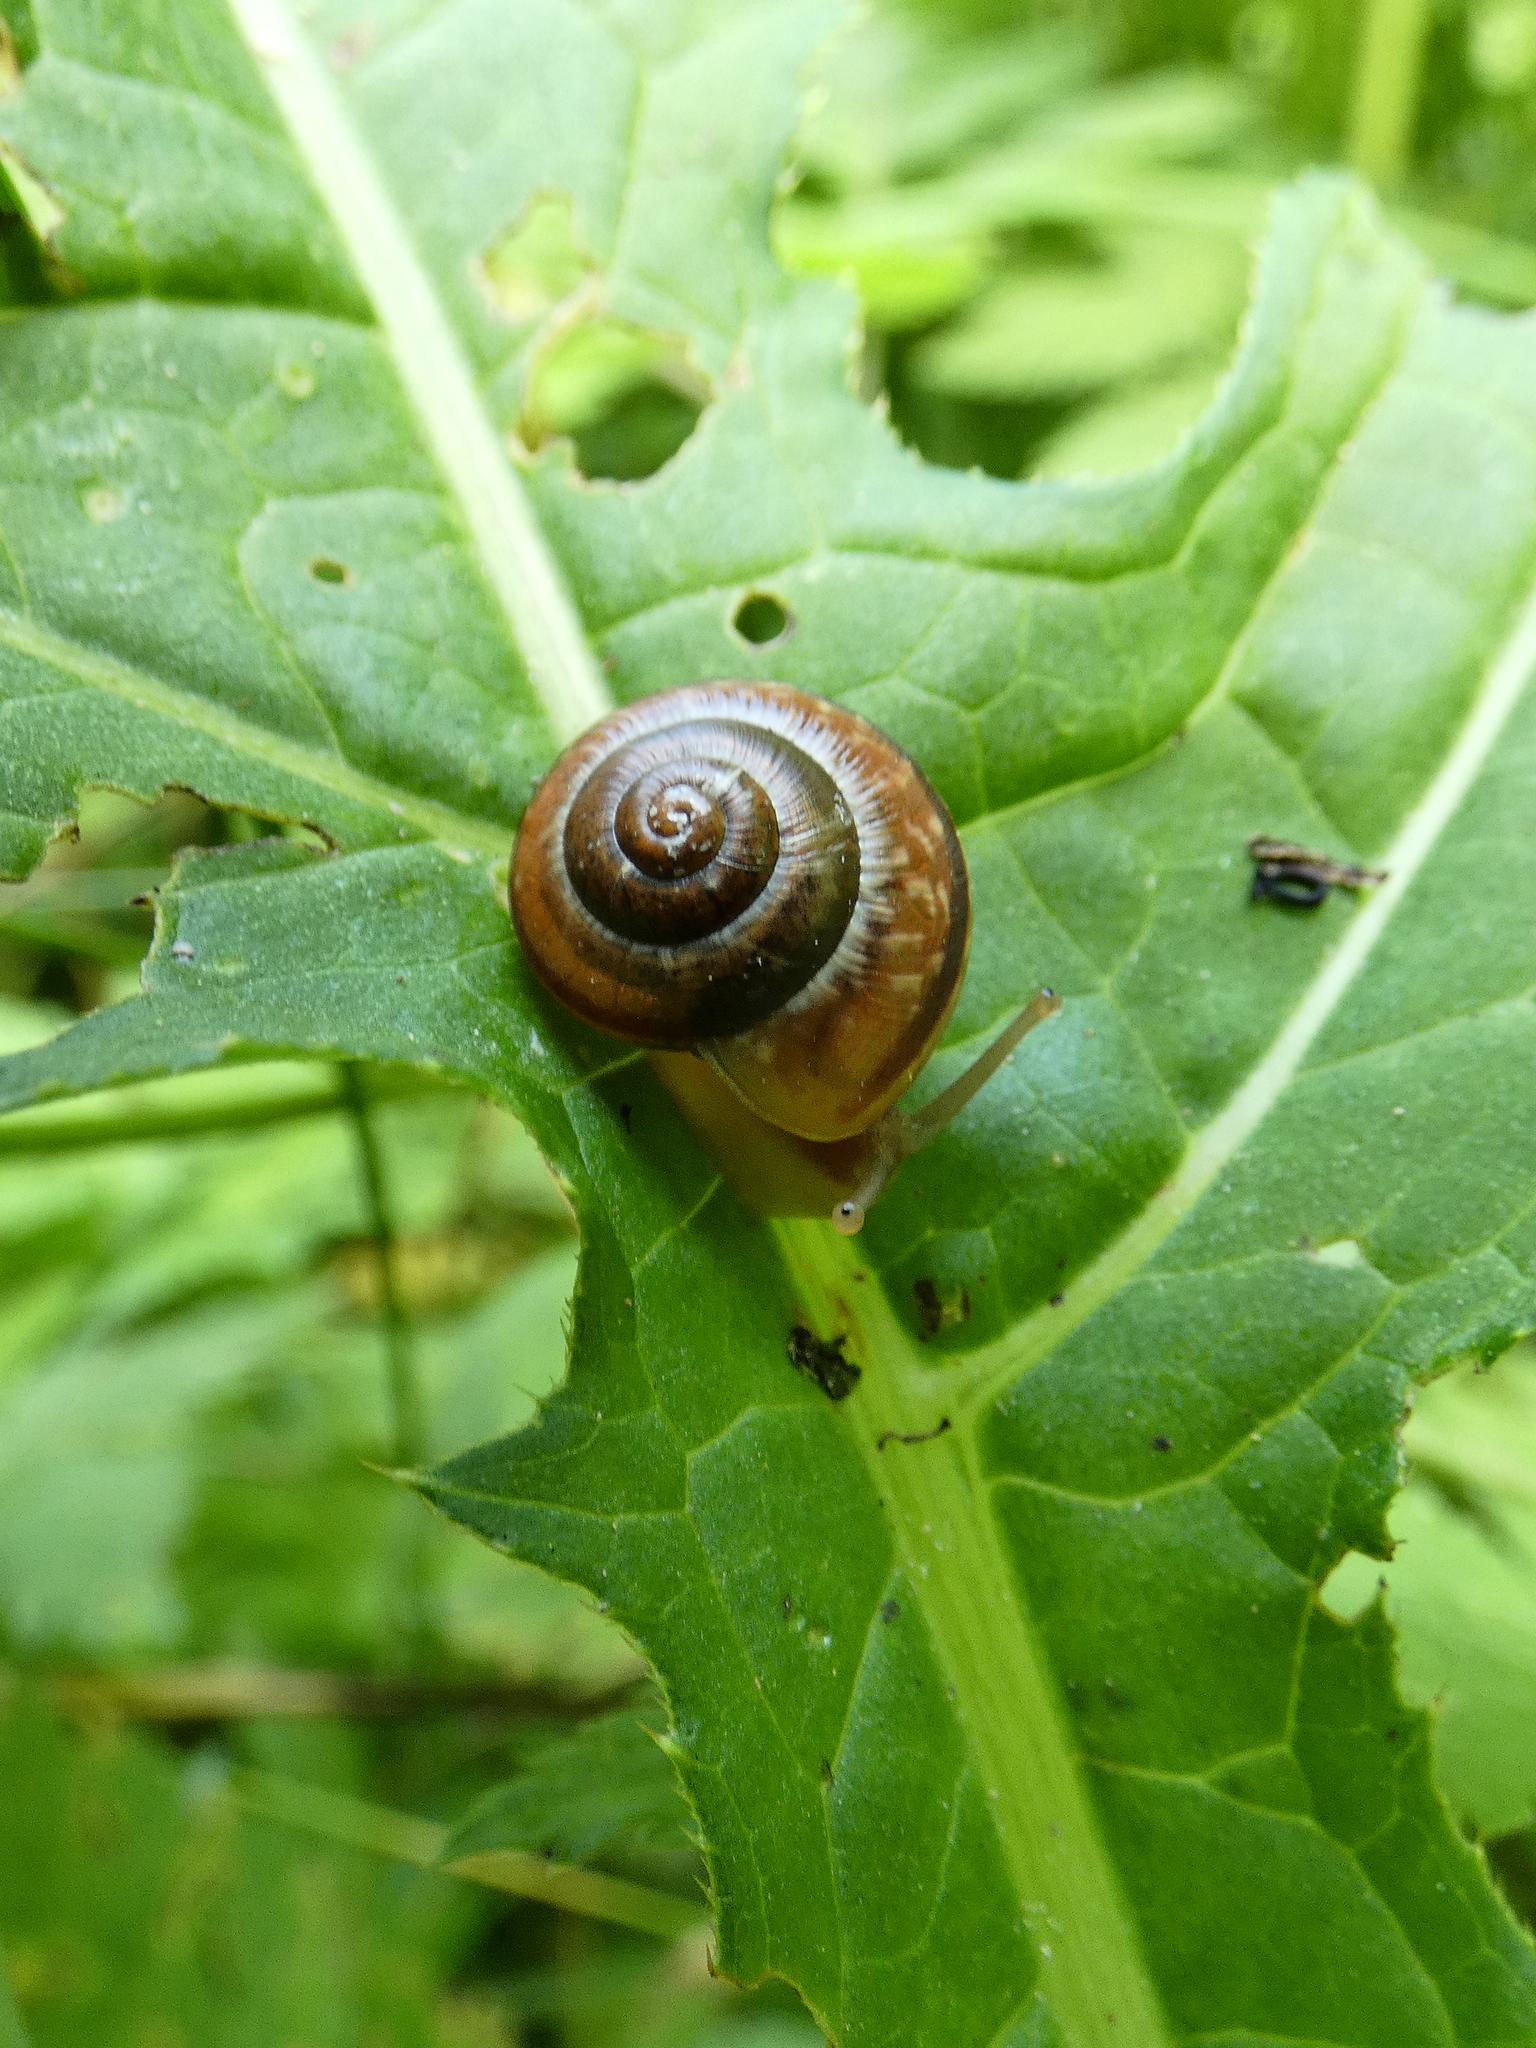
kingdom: Animalia
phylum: Mollusca
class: Gastropoda
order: Stylommatophora
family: Helicidae
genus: Arianta
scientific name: Arianta arbustorum
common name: Copse snail
